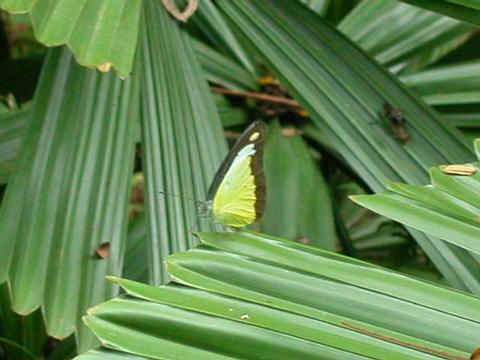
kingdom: Animalia
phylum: Arthropoda
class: Insecta
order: Lepidoptera
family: Pieridae
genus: Appias
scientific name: Appias lyncida
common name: Chocolate albatross
